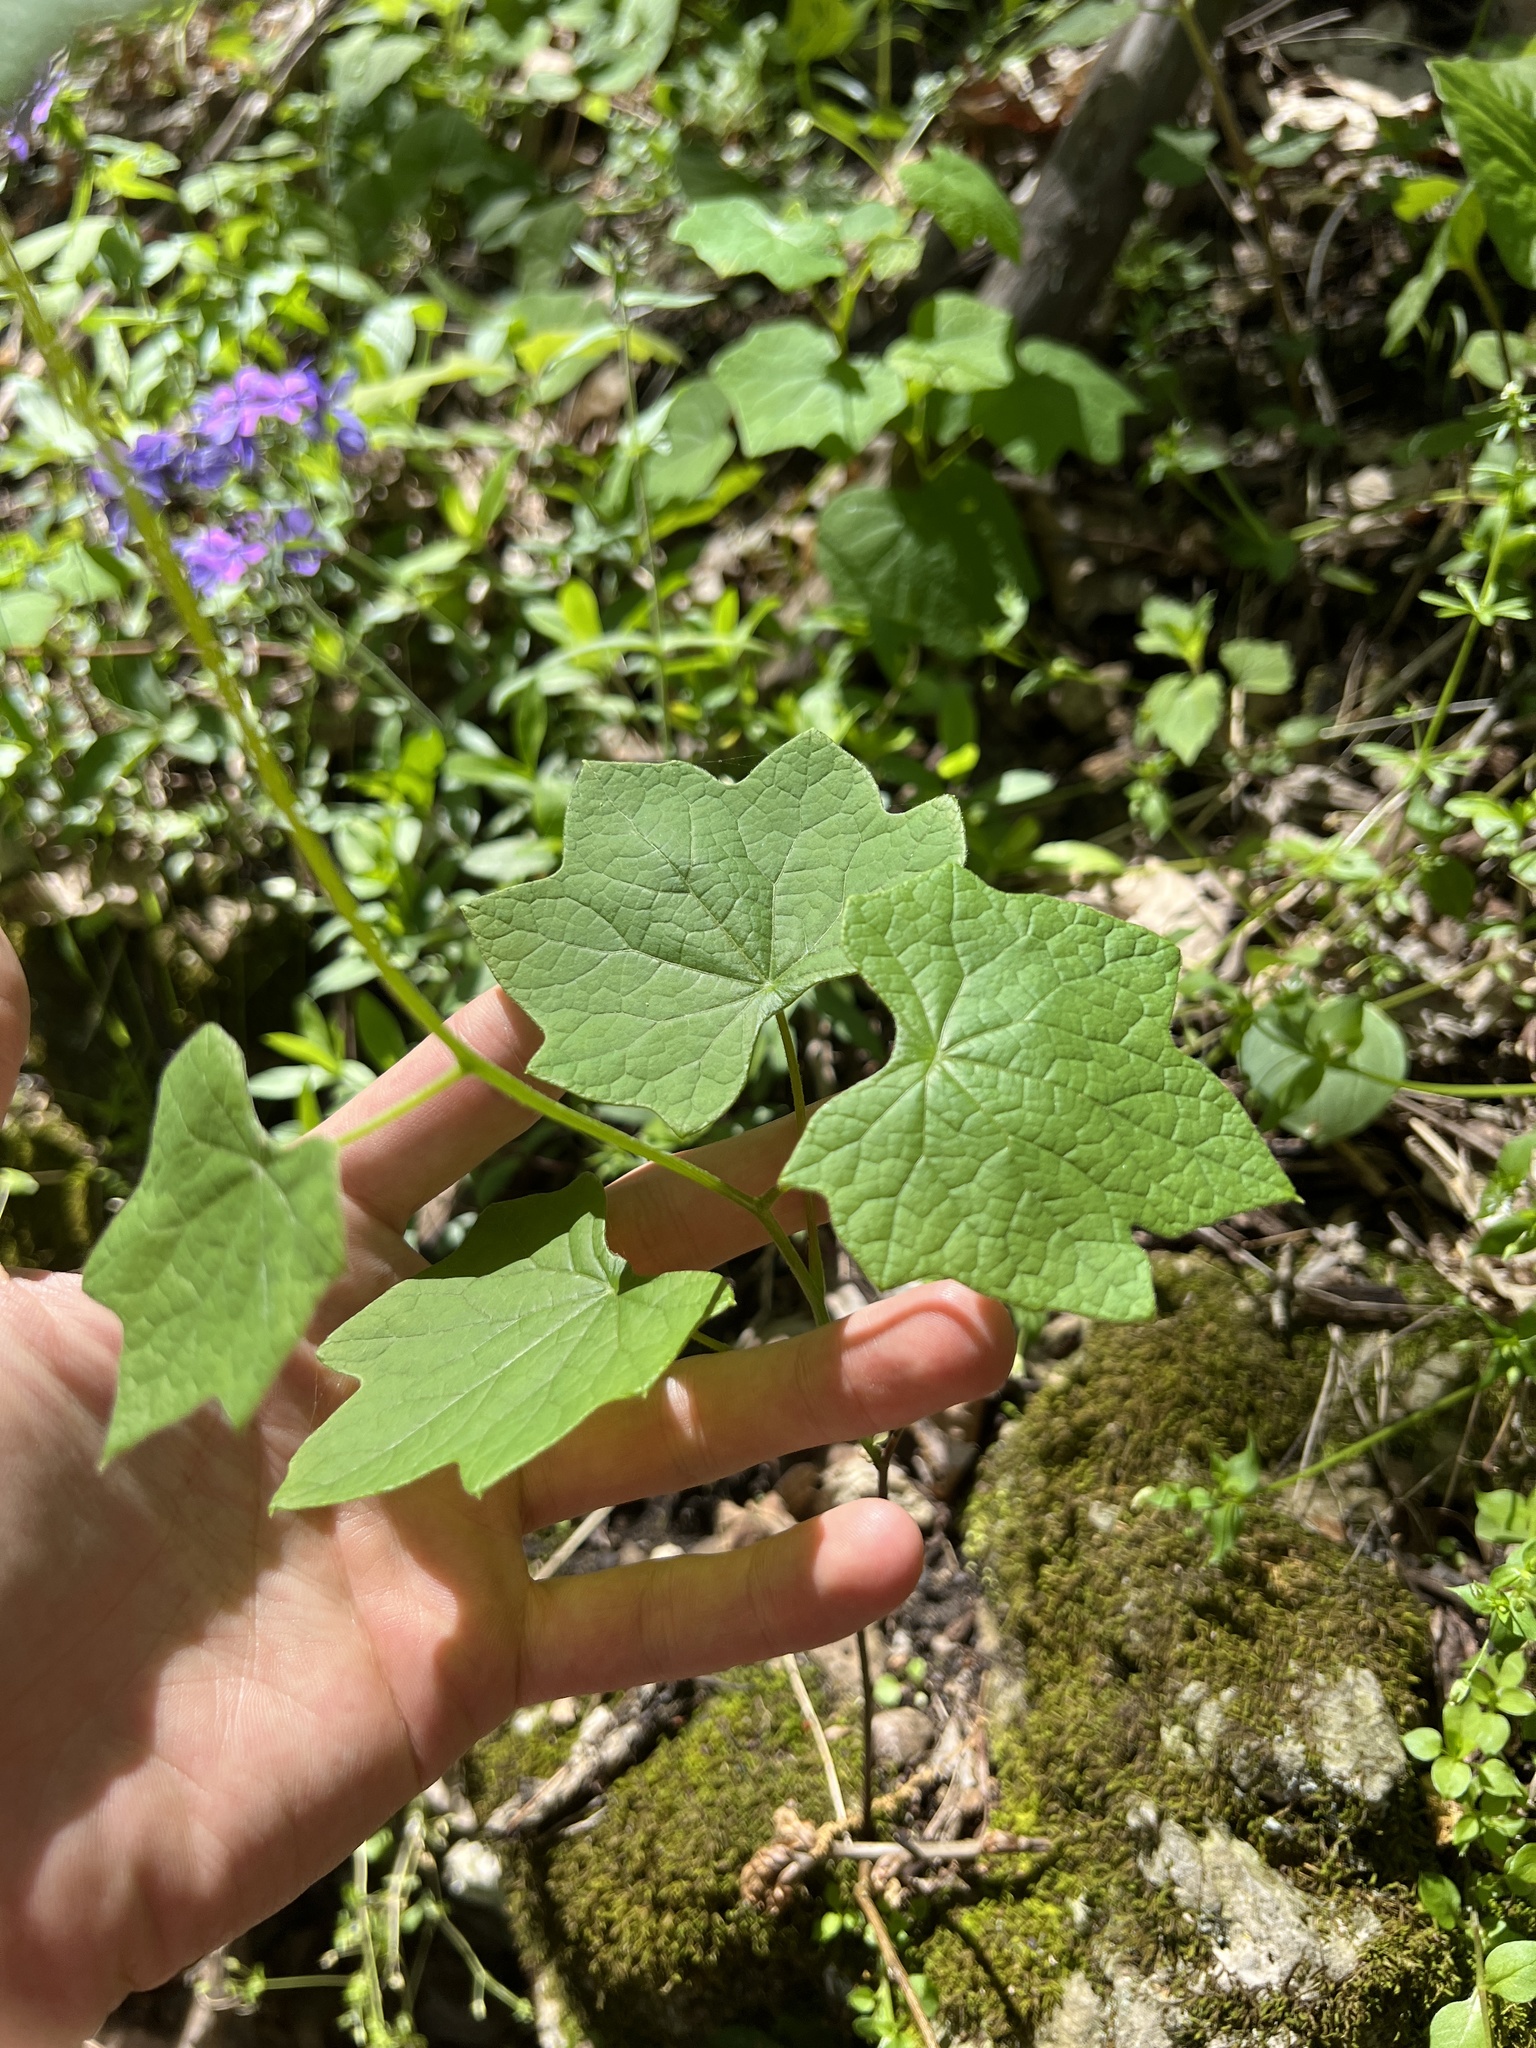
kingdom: Plantae
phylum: Tracheophyta
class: Magnoliopsida
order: Ranunculales
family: Menispermaceae
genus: Menispermum
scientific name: Menispermum canadense
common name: Moonseed
